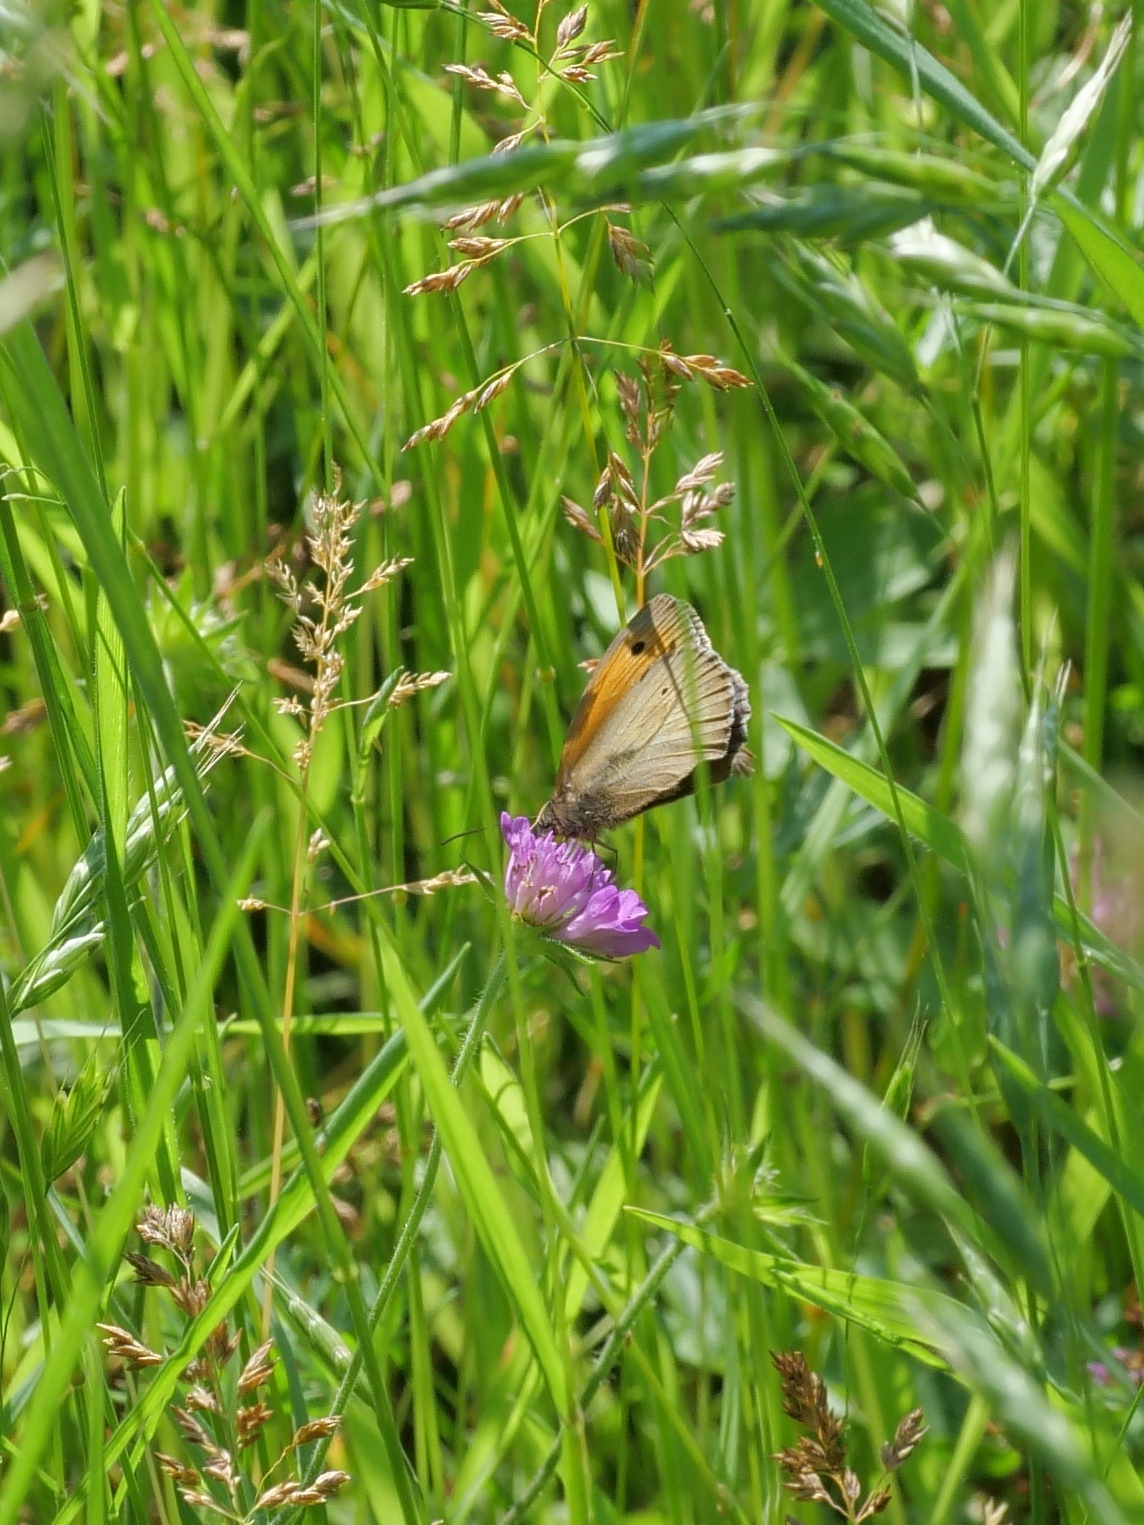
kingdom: Animalia
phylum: Arthropoda
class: Insecta
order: Lepidoptera
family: Nymphalidae
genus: Maniola
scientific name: Maniola jurtina
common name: Meadow brown
